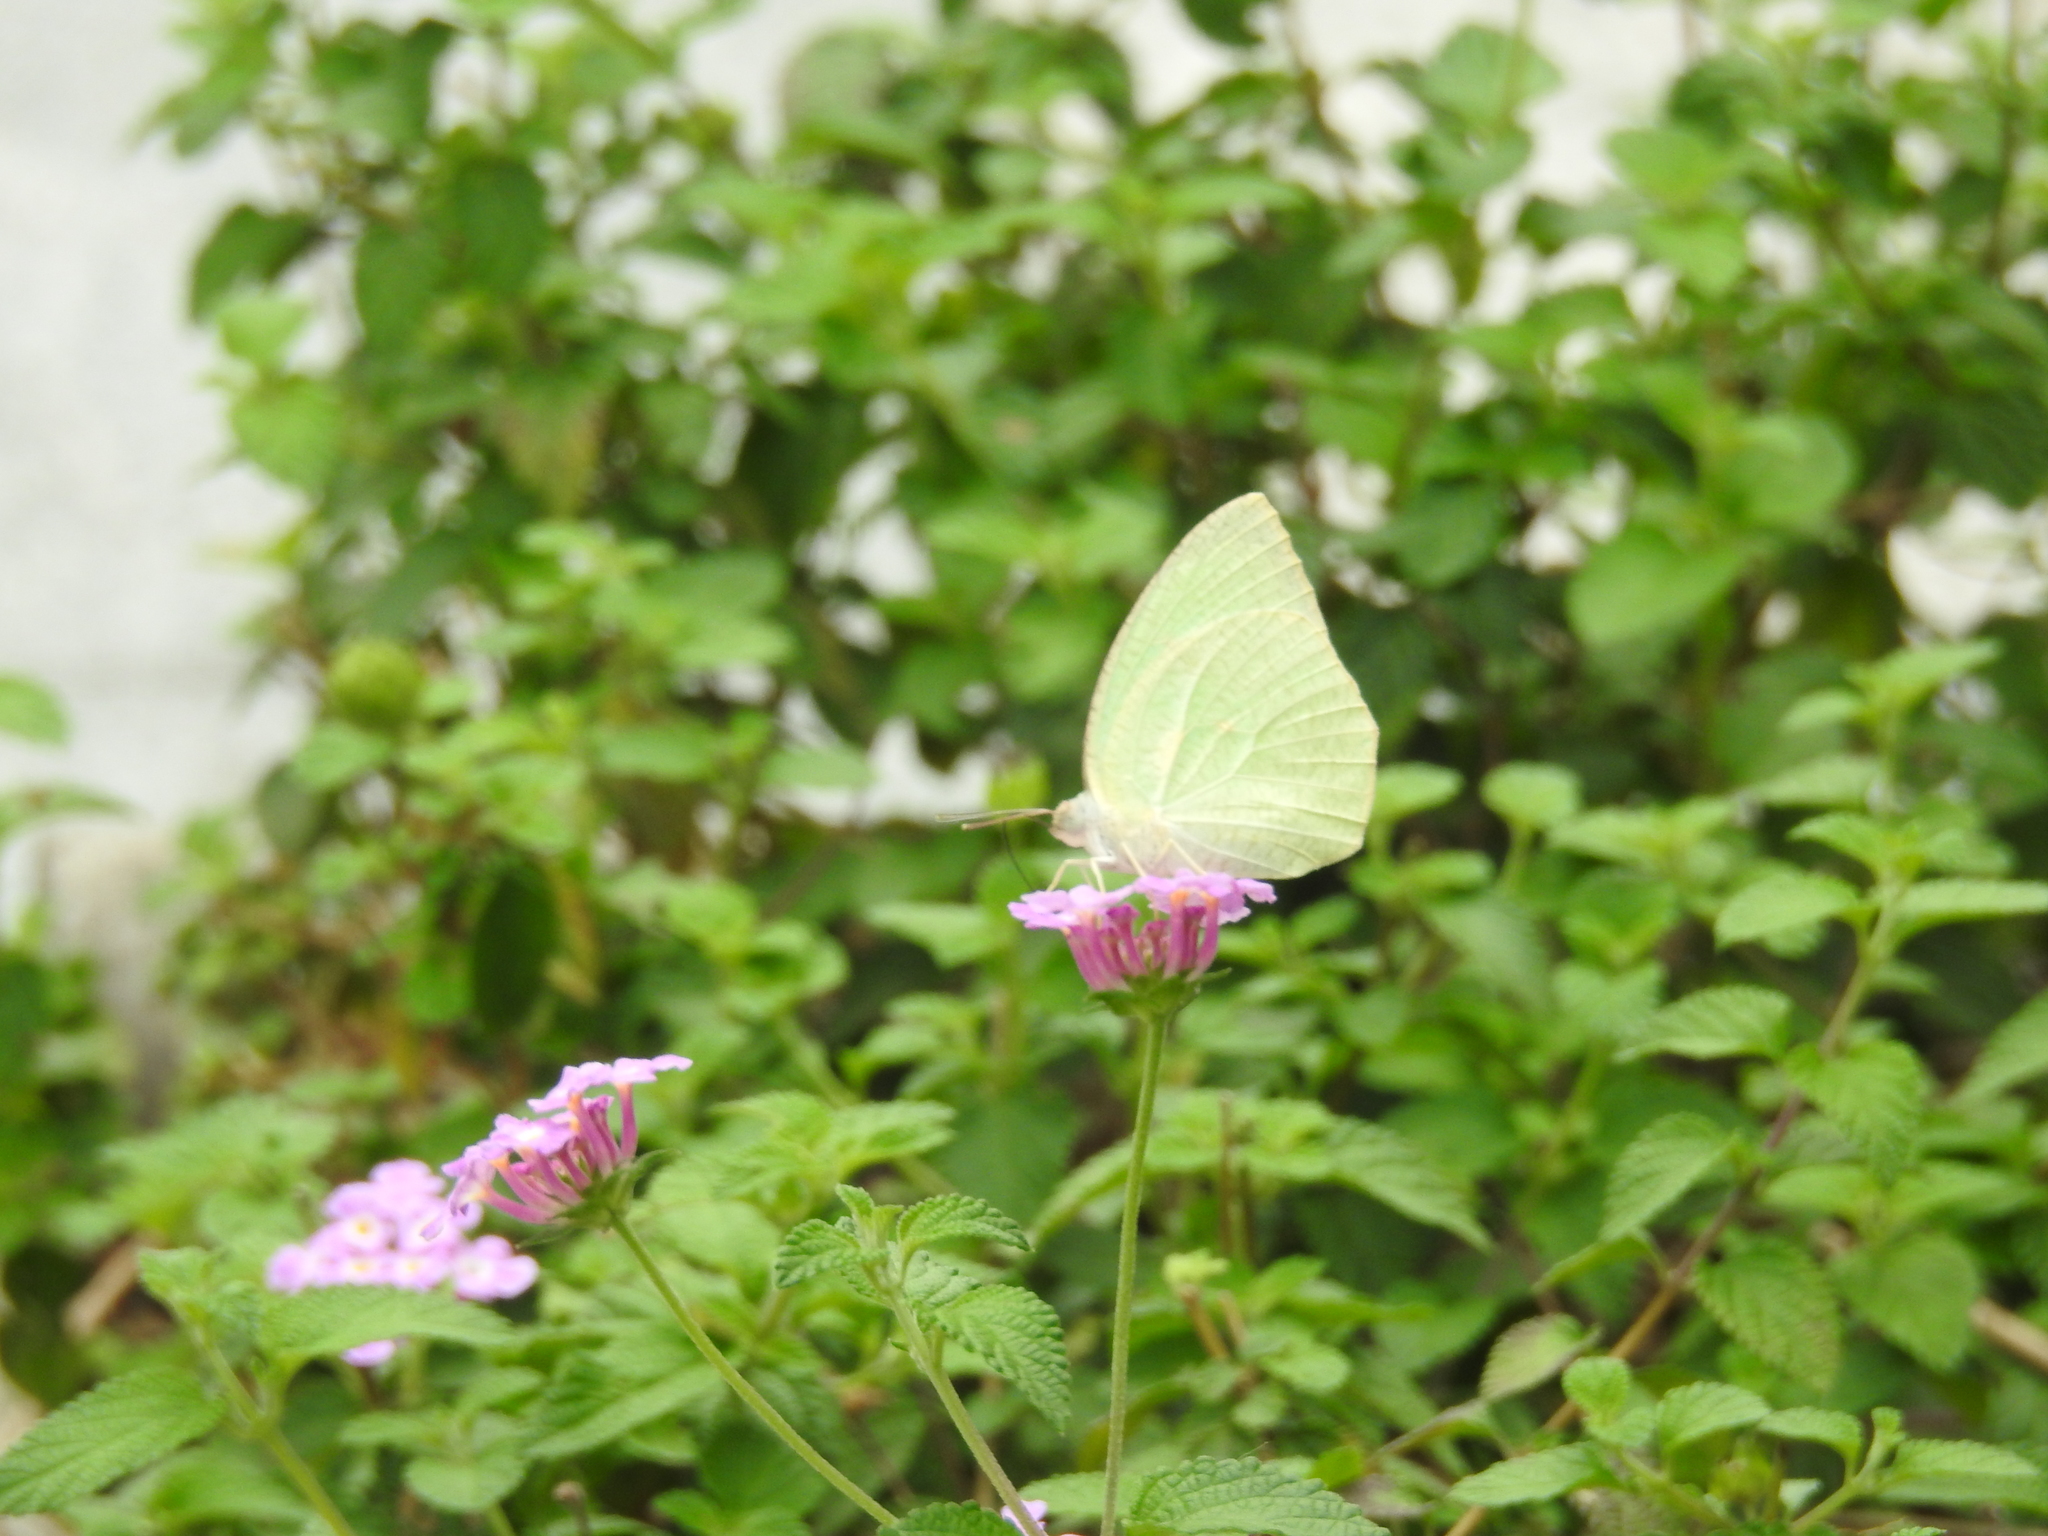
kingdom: Animalia
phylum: Arthropoda
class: Insecta
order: Lepidoptera
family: Pieridae
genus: Catopsilia
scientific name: Catopsilia pyranthe
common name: Mottled emigrant
